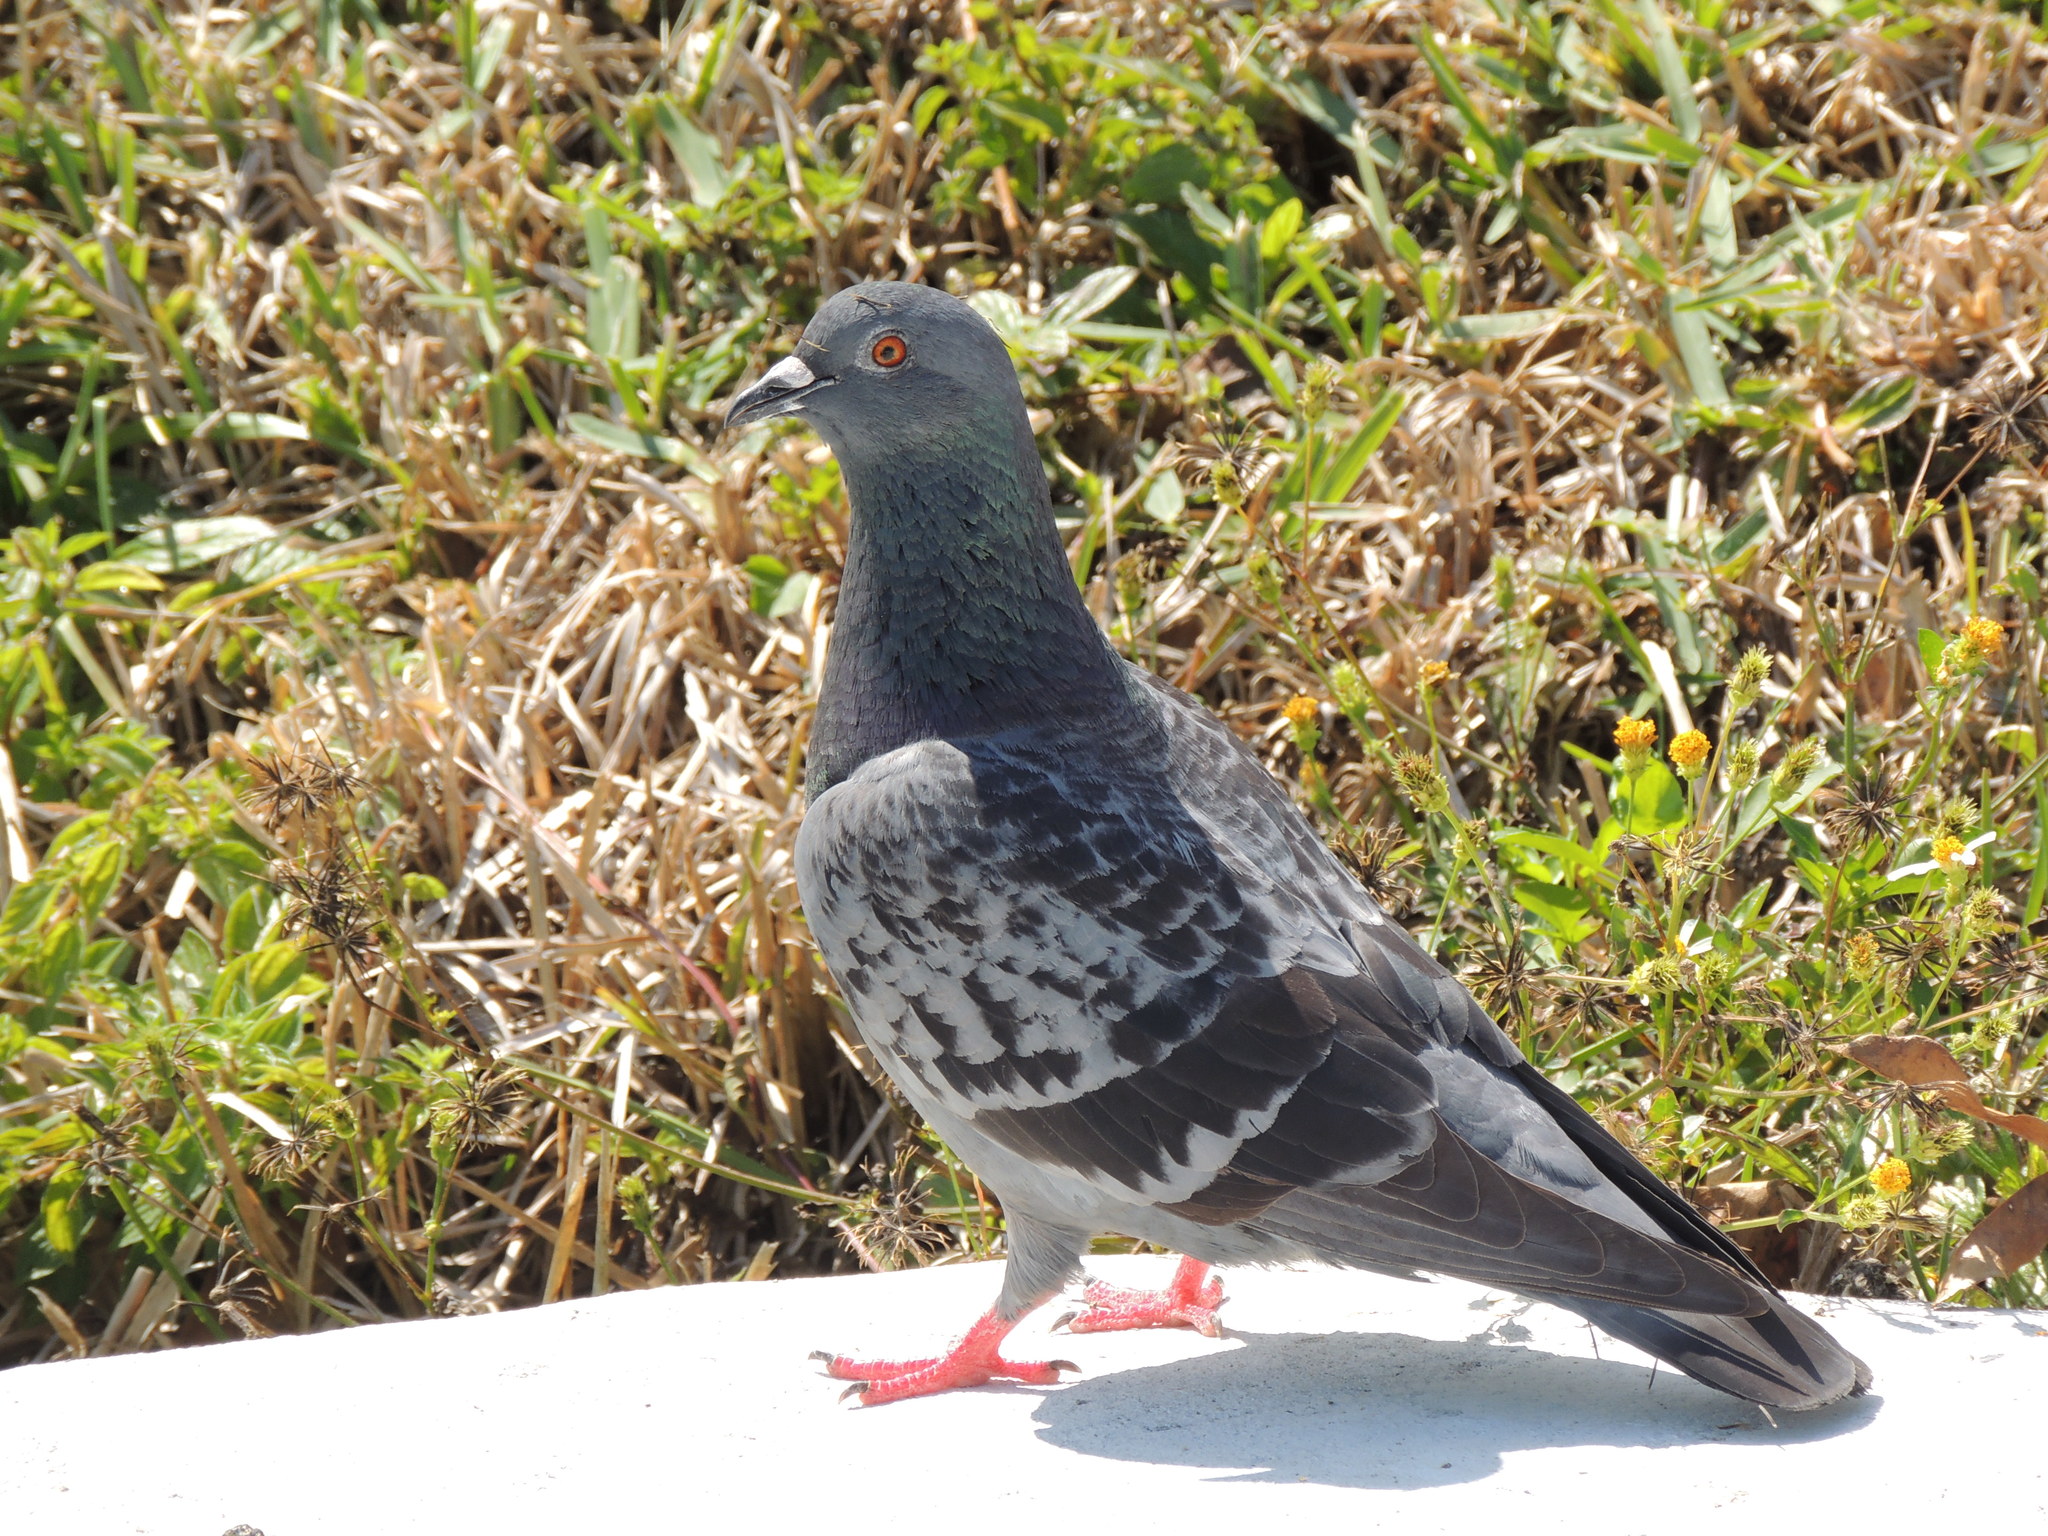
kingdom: Animalia
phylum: Chordata
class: Aves
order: Columbiformes
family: Columbidae
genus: Columba
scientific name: Columba livia
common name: Rock pigeon
